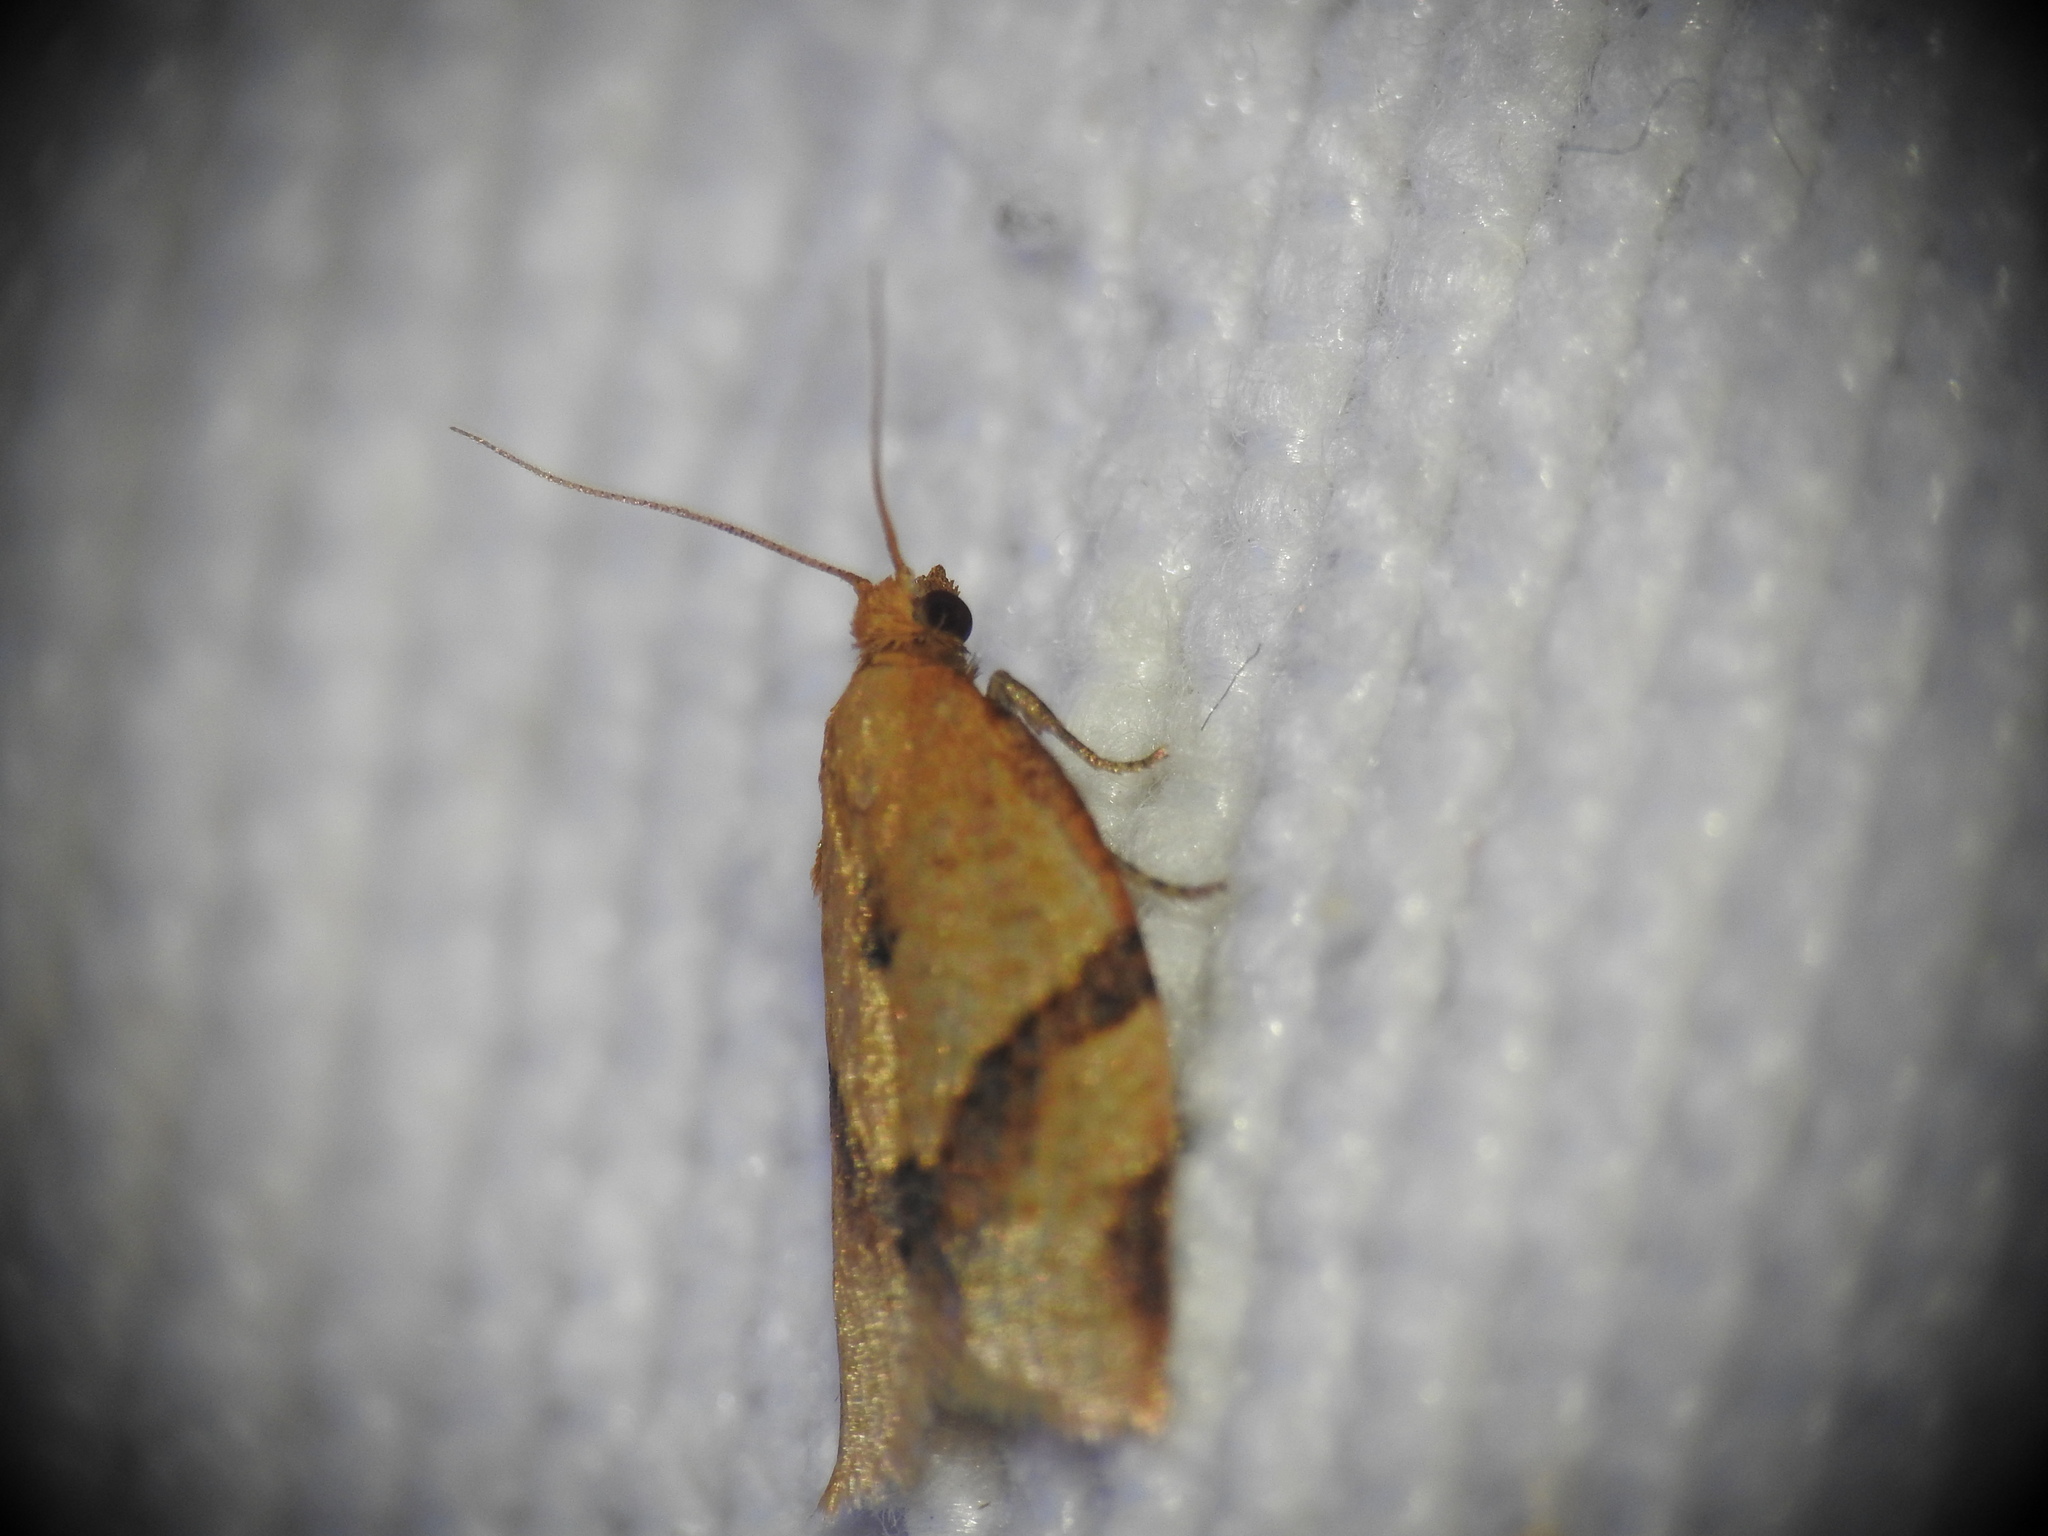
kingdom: Animalia
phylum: Arthropoda
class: Insecta
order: Lepidoptera
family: Tortricidae
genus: Clepsis
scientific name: Clepsis consimilana
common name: Privet tortrix
